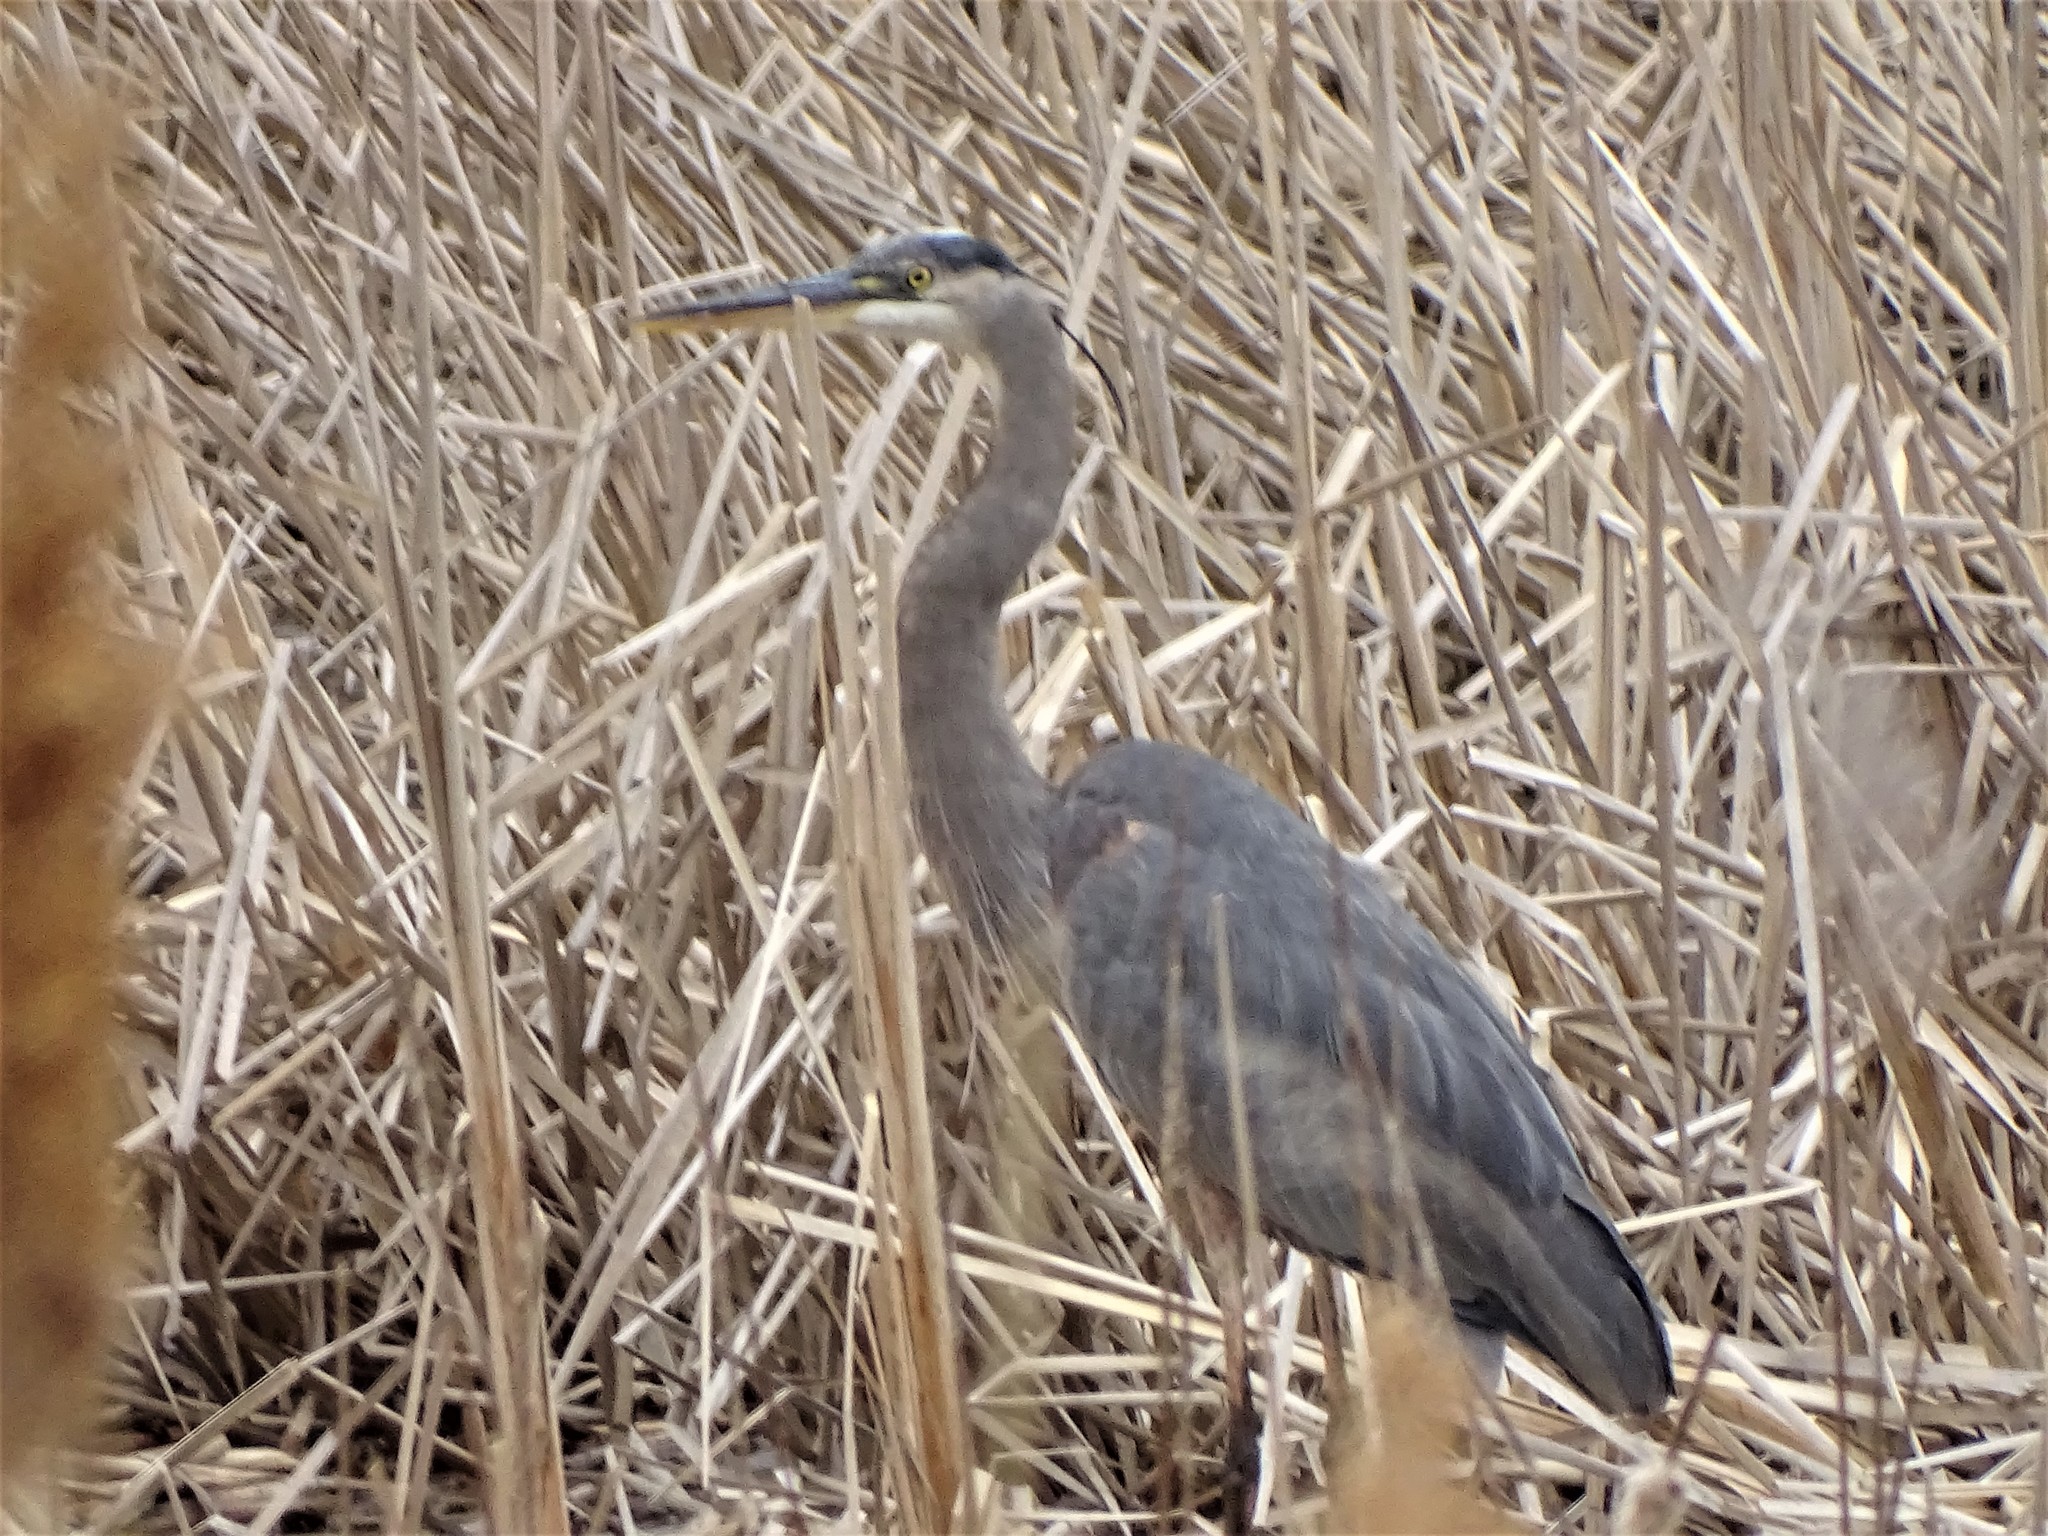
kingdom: Animalia
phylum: Chordata
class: Aves
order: Pelecaniformes
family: Ardeidae
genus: Ardea
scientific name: Ardea herodias
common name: Great blue heron
